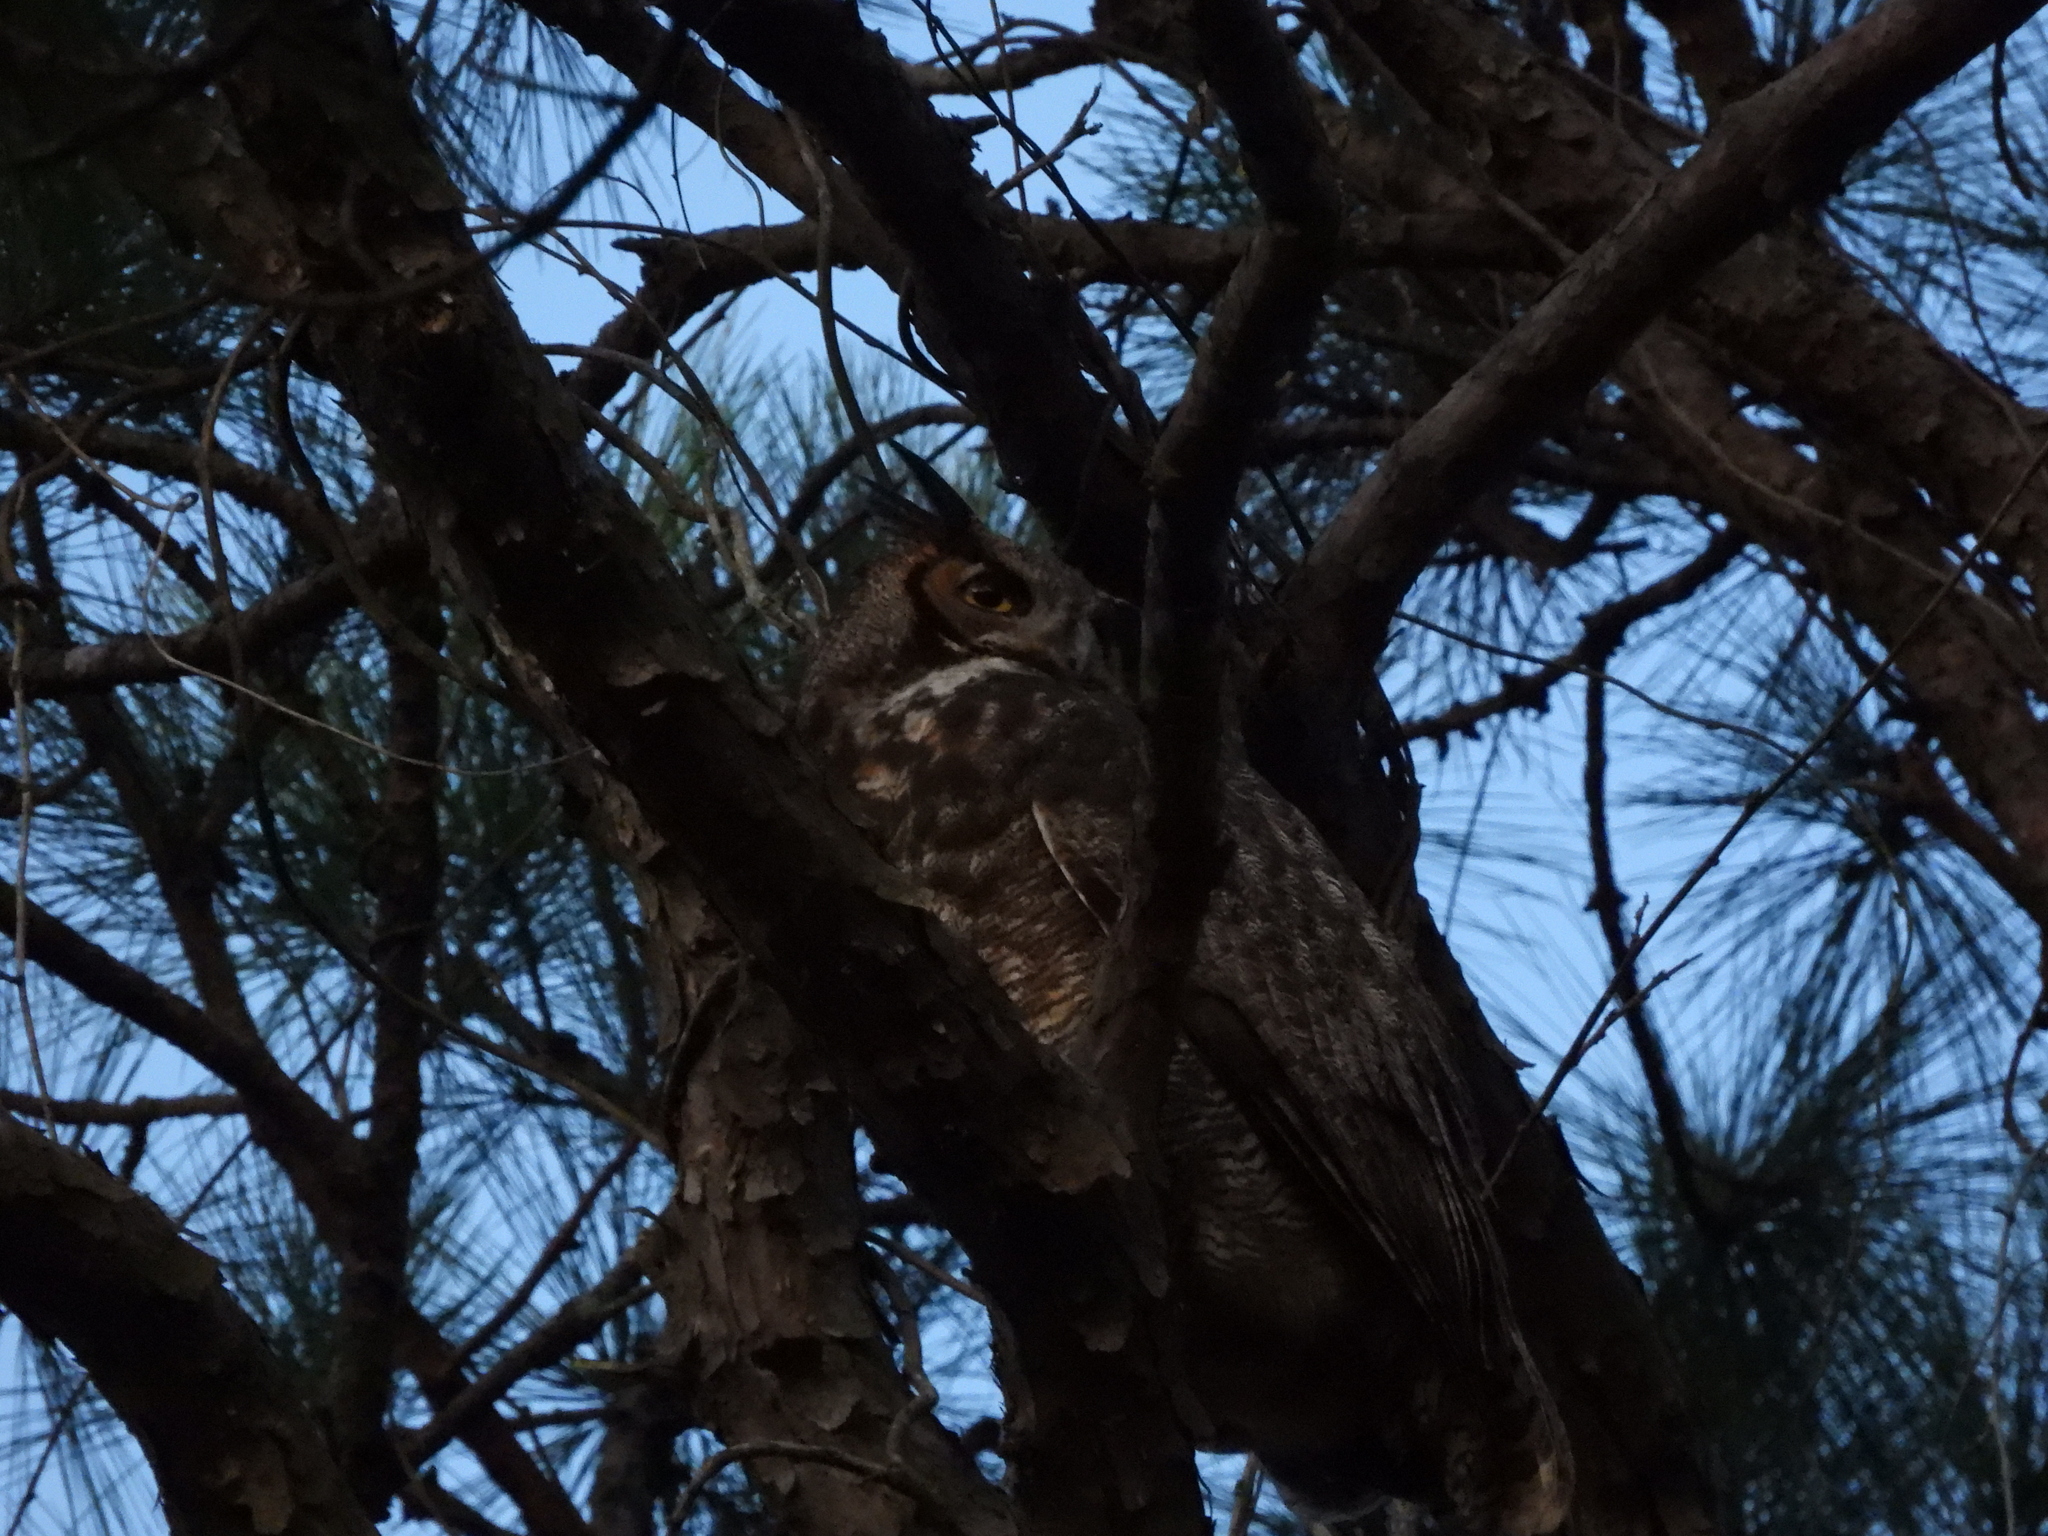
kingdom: Animalia
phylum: Chordata
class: Aves
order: Strigiformes
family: Strigidae
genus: Bubo
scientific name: Bubo virginianus
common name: Great horned owl
